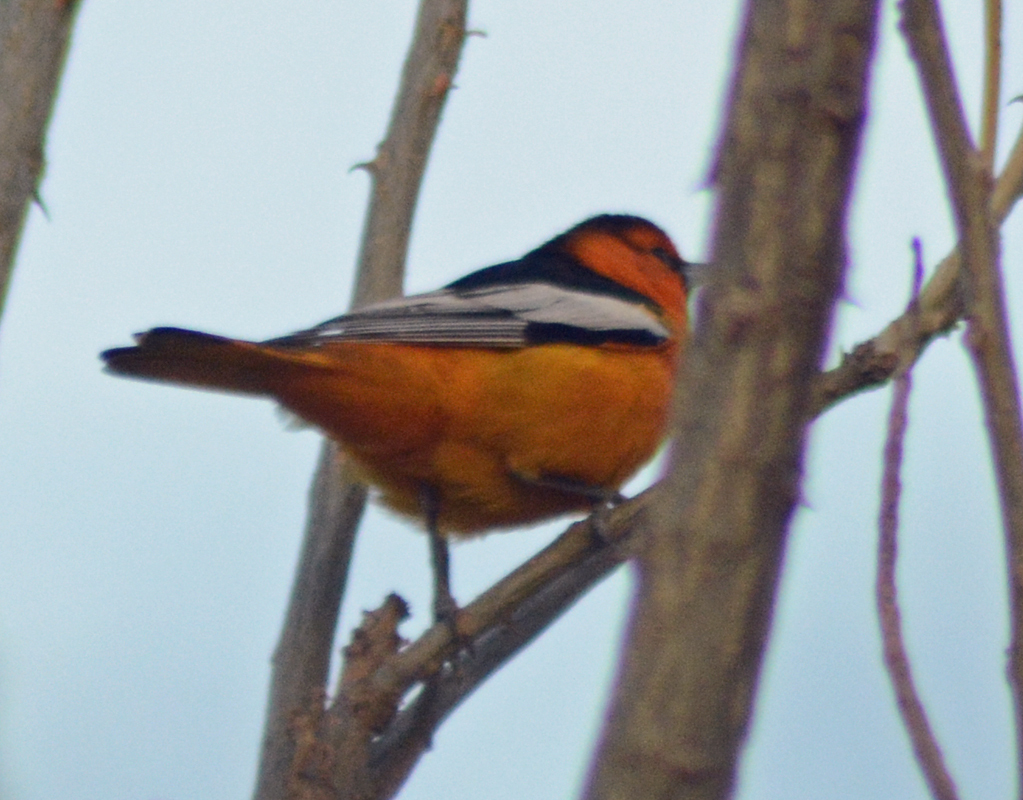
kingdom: Animalia
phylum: Chordata
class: Aves
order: Passeriformes
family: Icteridae
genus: Icterus
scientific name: Icterus bullockii
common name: Bullock's oriole
